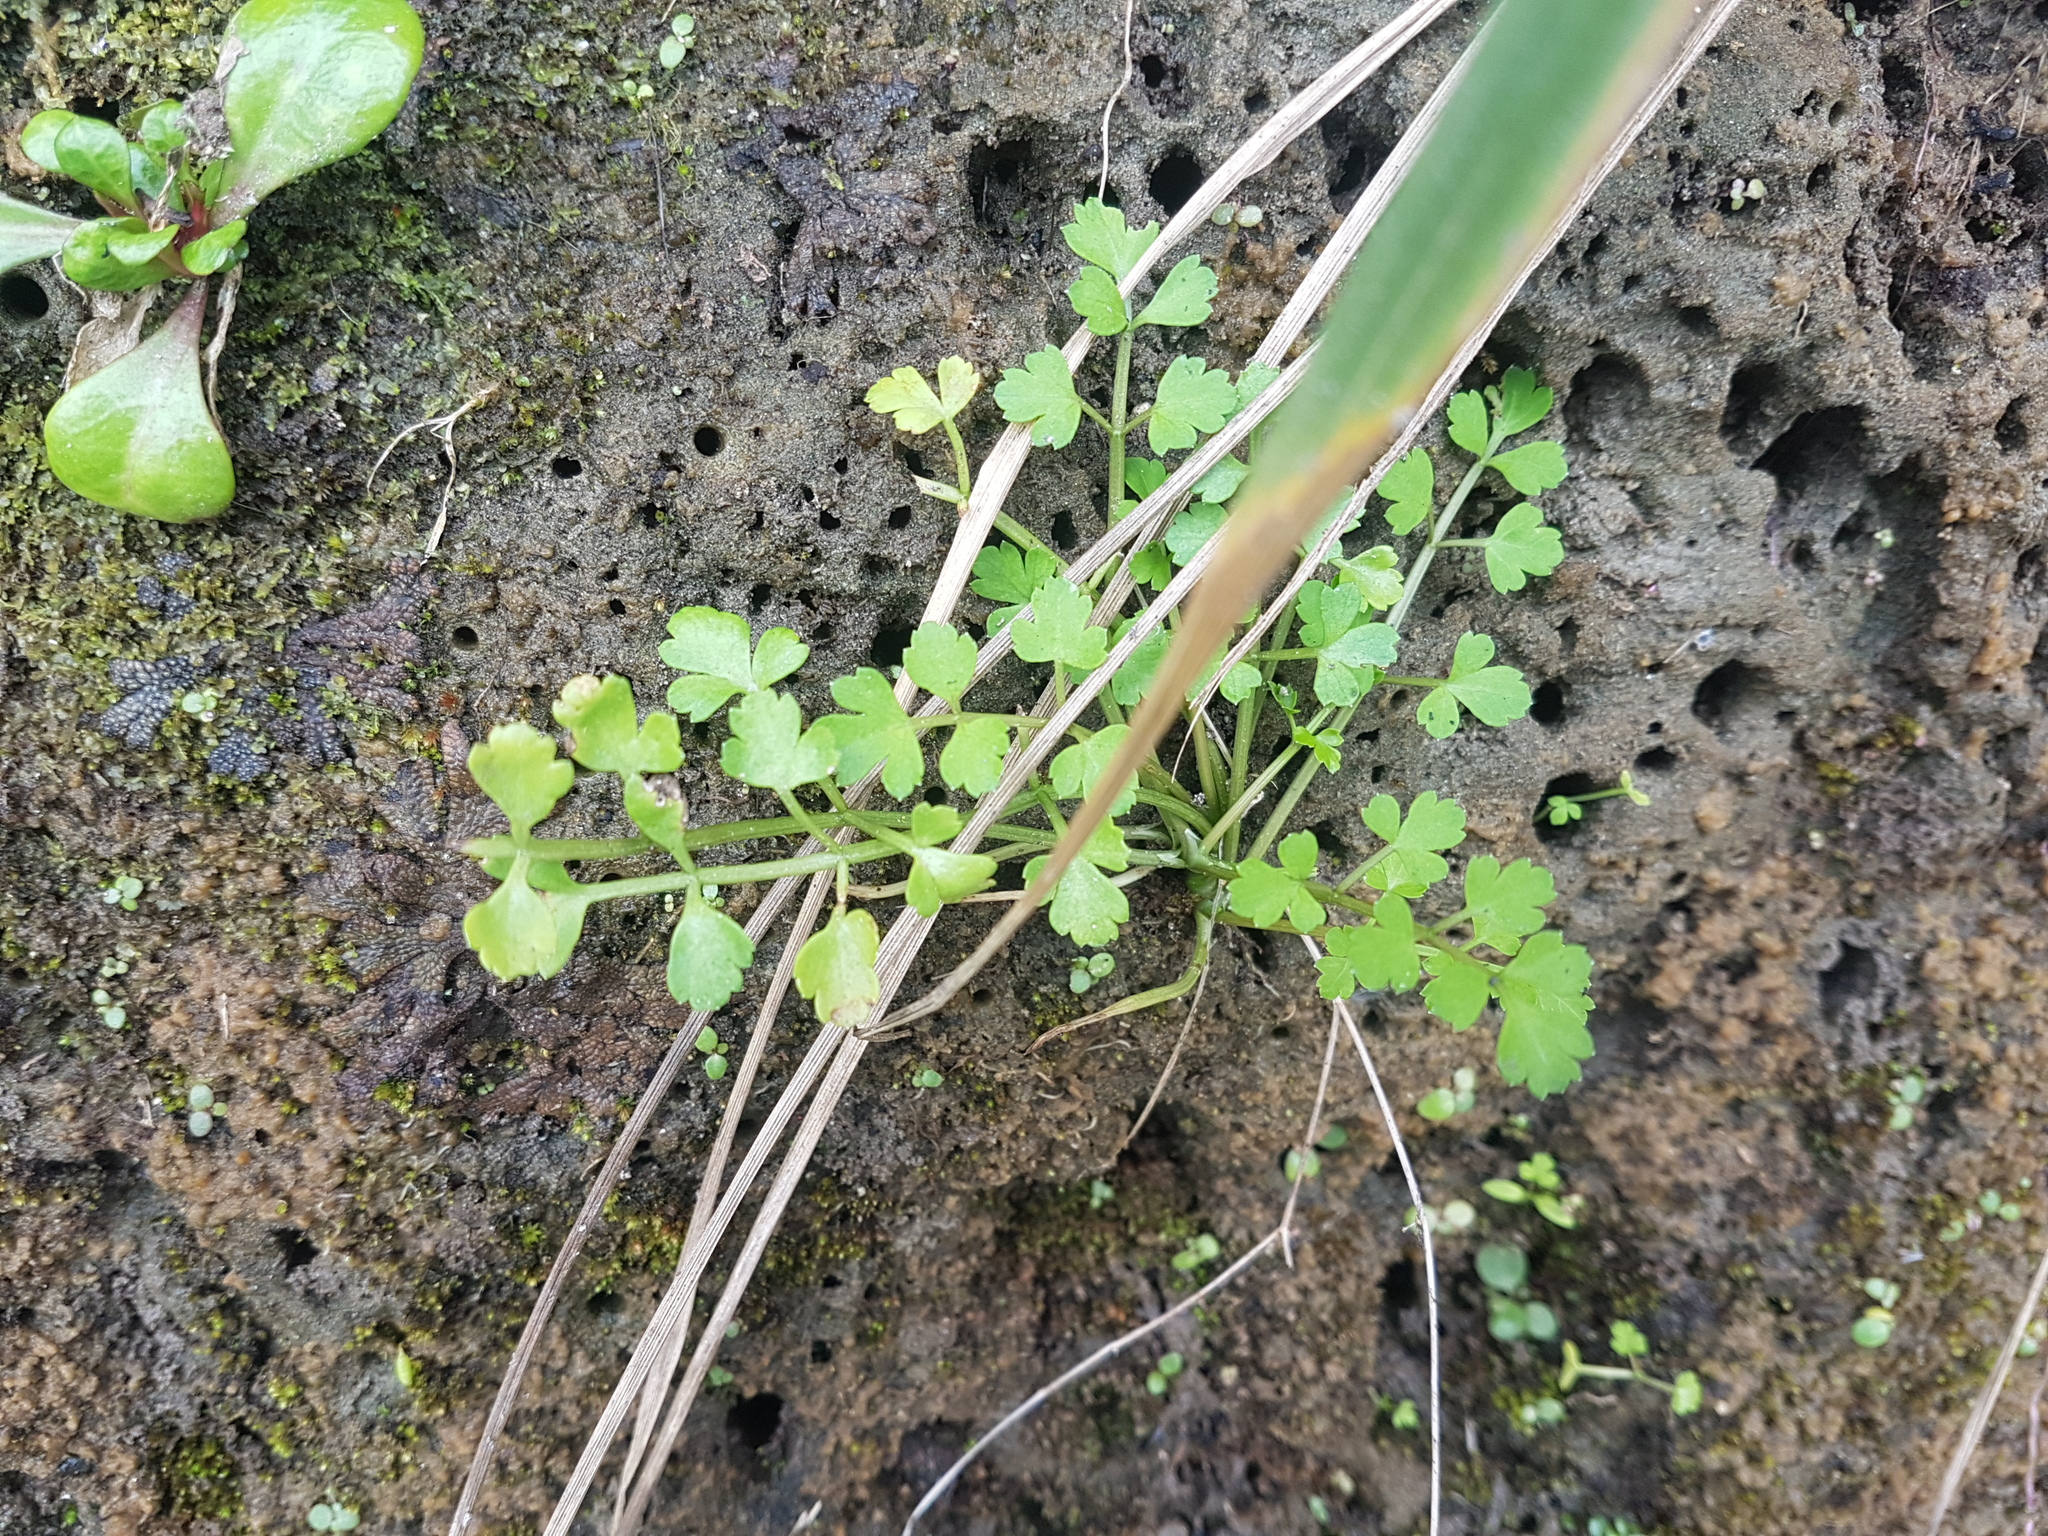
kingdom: Plantae
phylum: Tracheophyta
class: Magnoliopsida
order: Apiales
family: Apiaceae
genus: Apium
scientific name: Apium prostratum
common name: Prostrate marshwort
